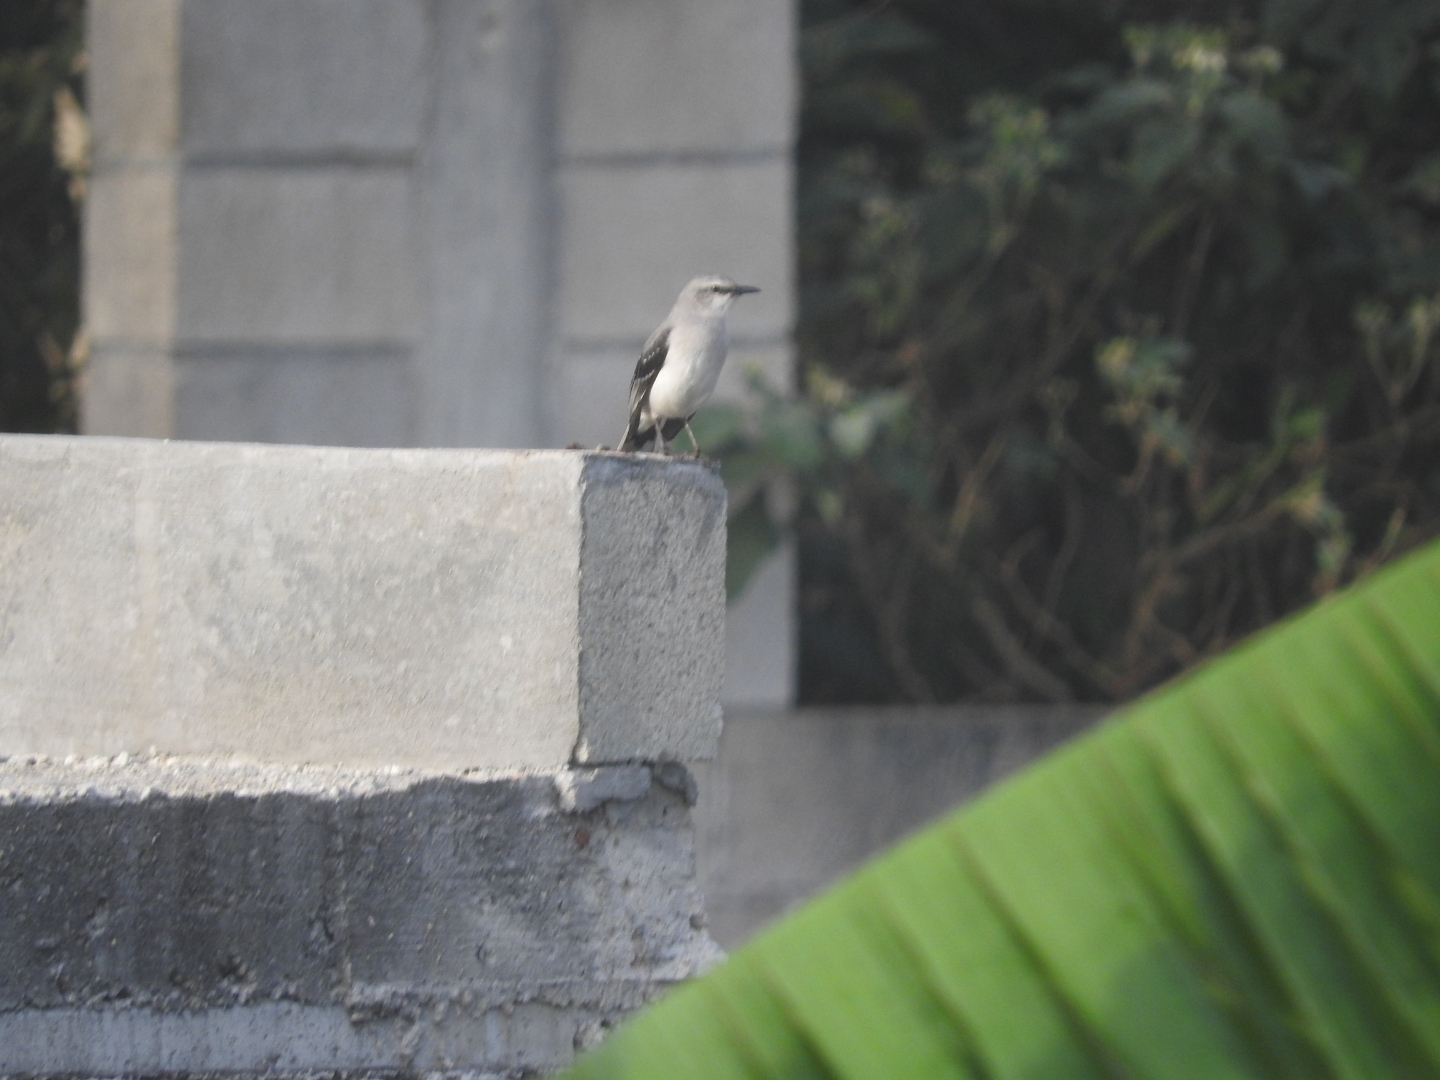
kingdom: Animalia
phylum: Chordata
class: Aves
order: Passeriformes
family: Mimidae
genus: Mimus
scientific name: Mimus gilvus
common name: Tropical mockingbird
